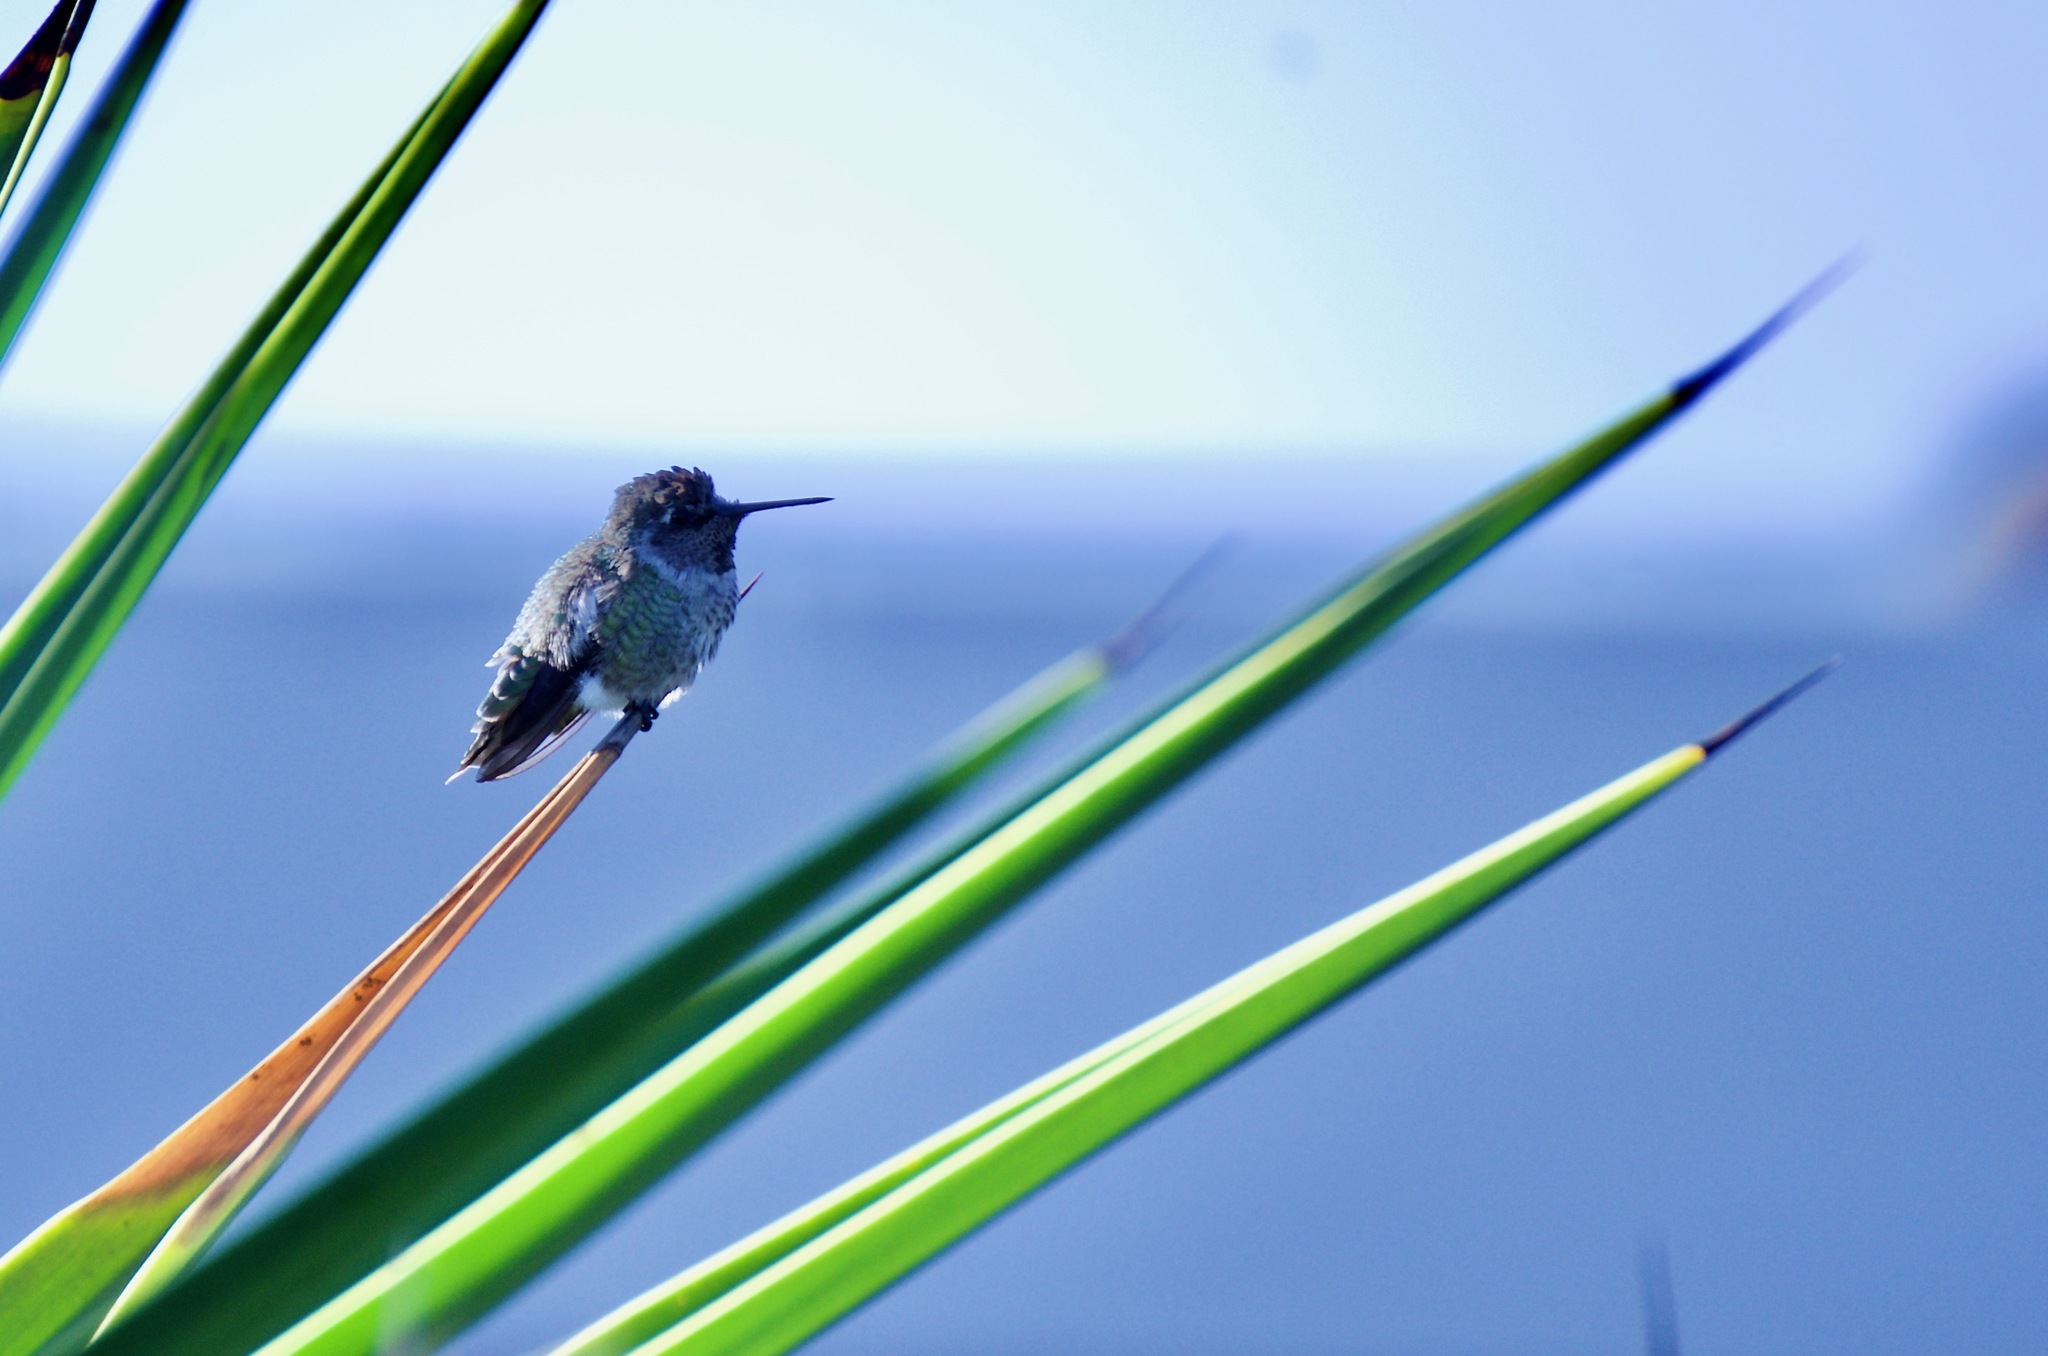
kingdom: Animalia
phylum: Chordata
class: Aves
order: Apodiformes
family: Trochilidae
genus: Calypte
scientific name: Calypte anna
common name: Anna's hummingbird
